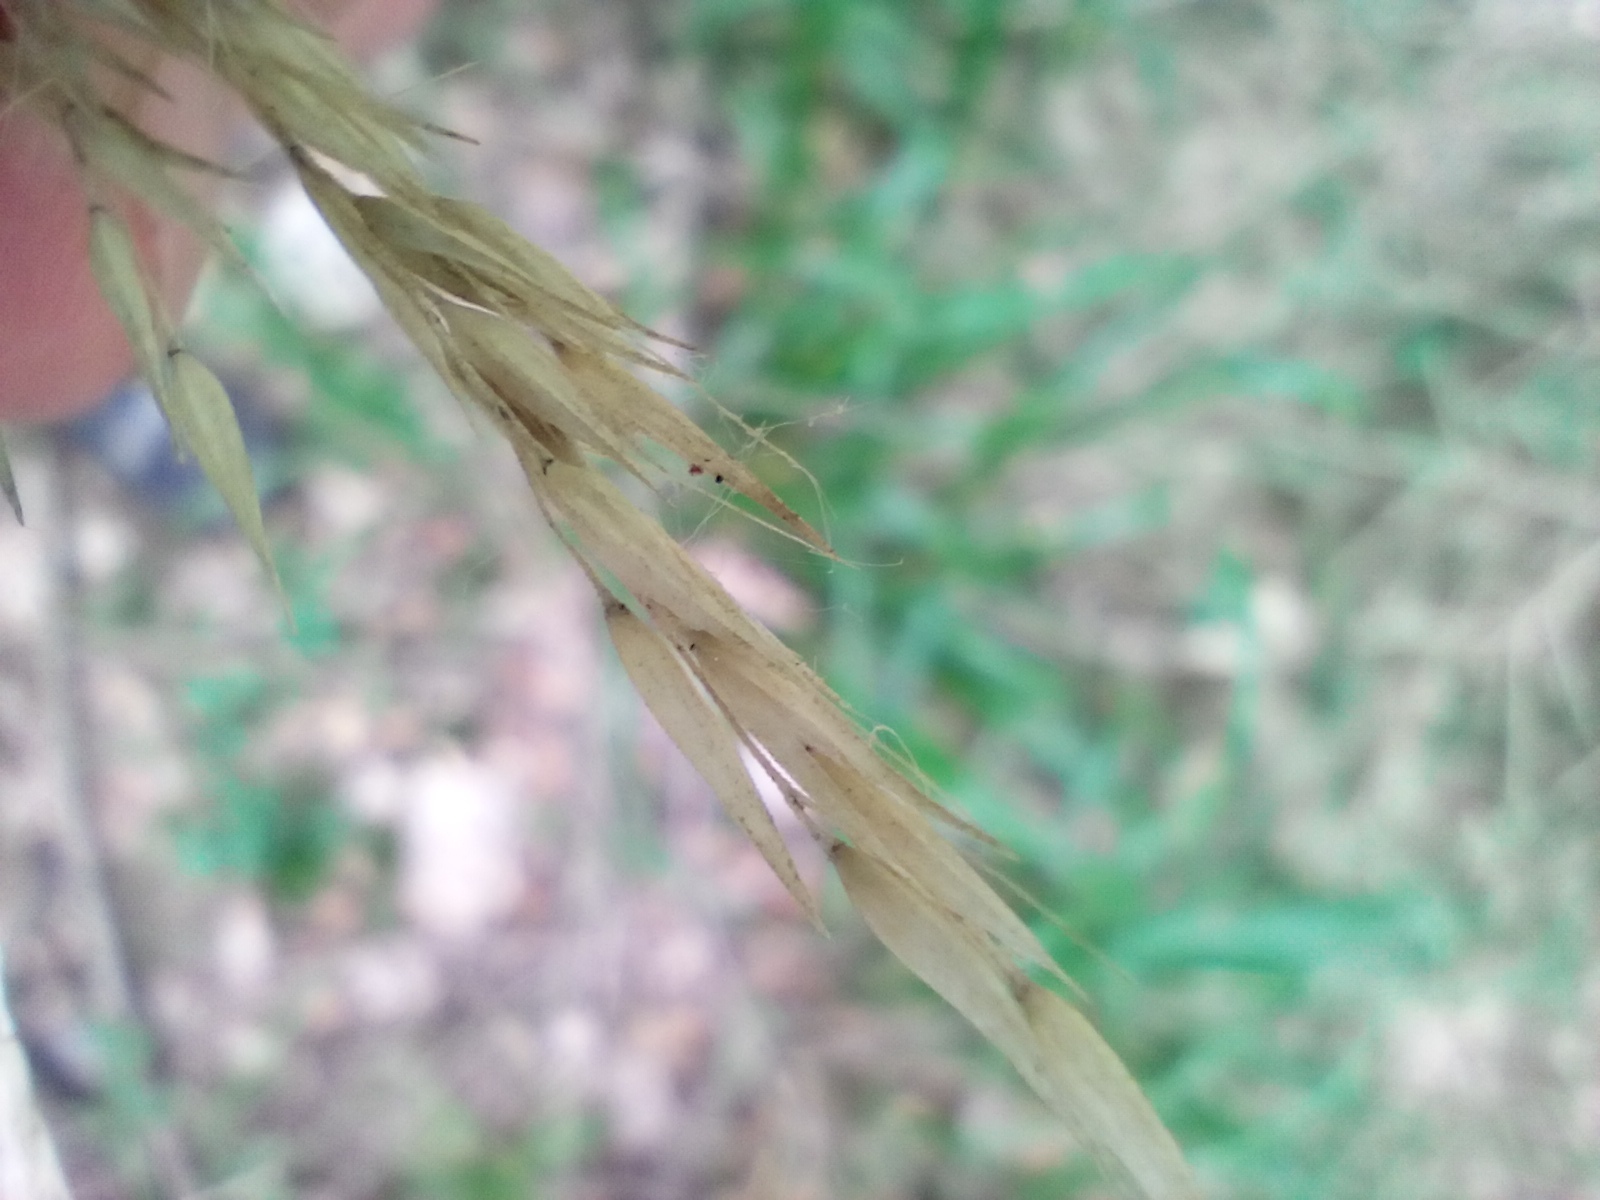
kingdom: Plantae
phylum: Tracheophyta
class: Liliopsida
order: Poales
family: Poaceae
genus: Calamagrostis
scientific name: Calamagrostis arundinacea
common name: Metskastik
